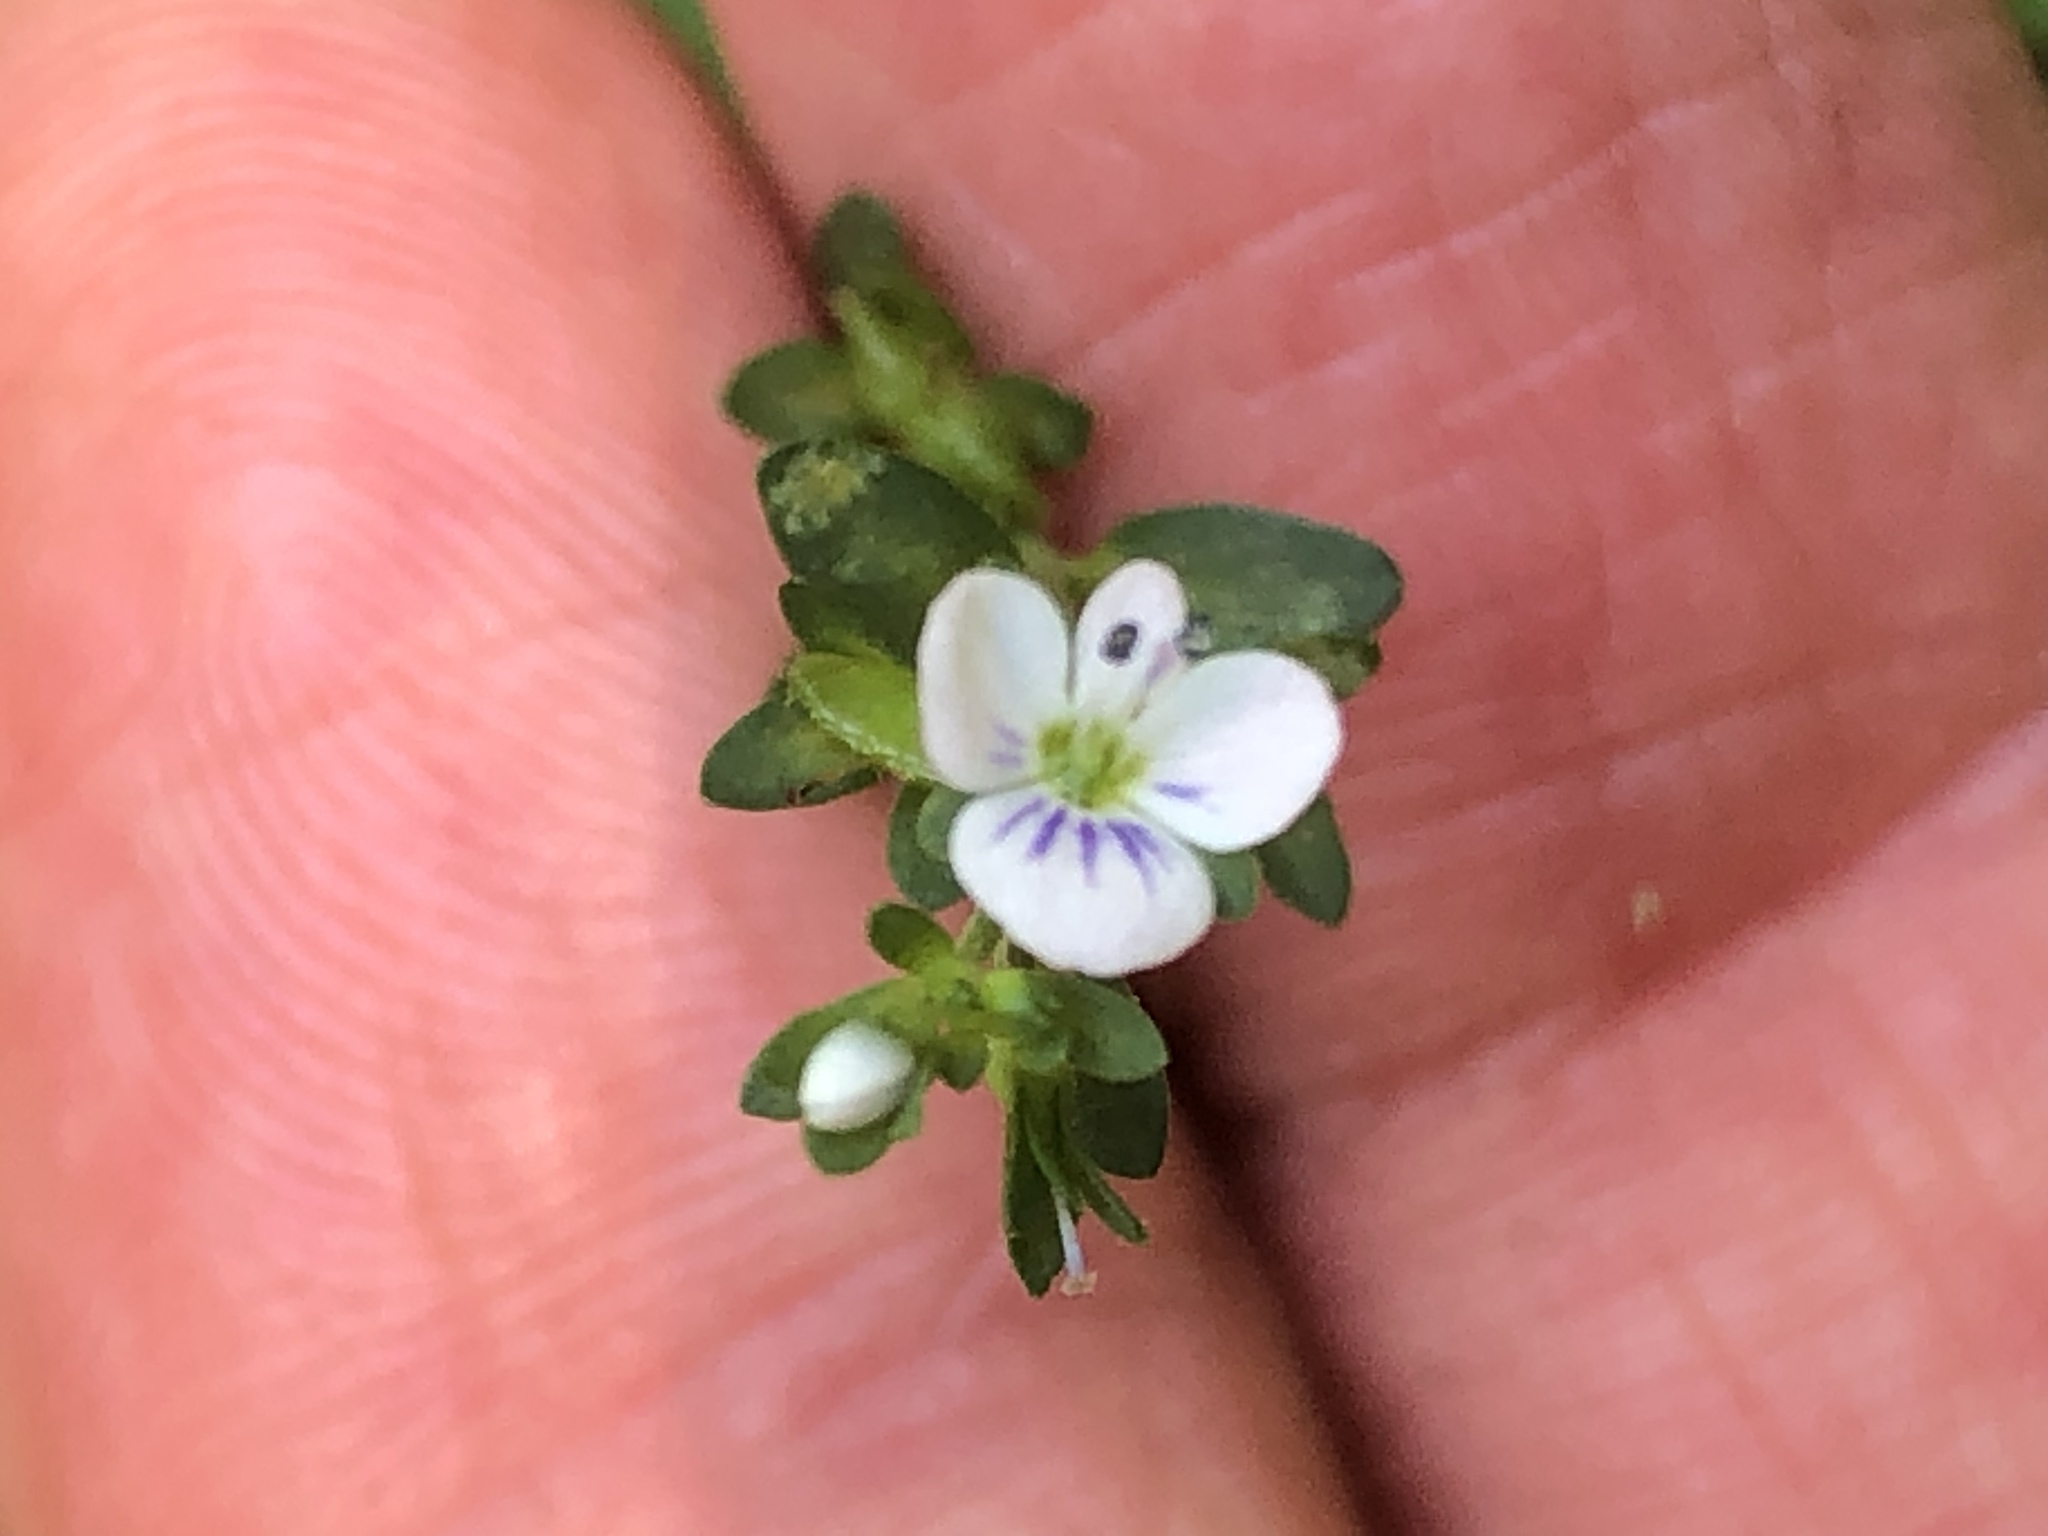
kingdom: Plantae
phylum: Tracheophyta
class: Magnoliopsida
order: Lamiales
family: Plantaginaceae
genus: Veronica
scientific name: Veronica serpyllifolia
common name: Thyme-leaved speedwell
